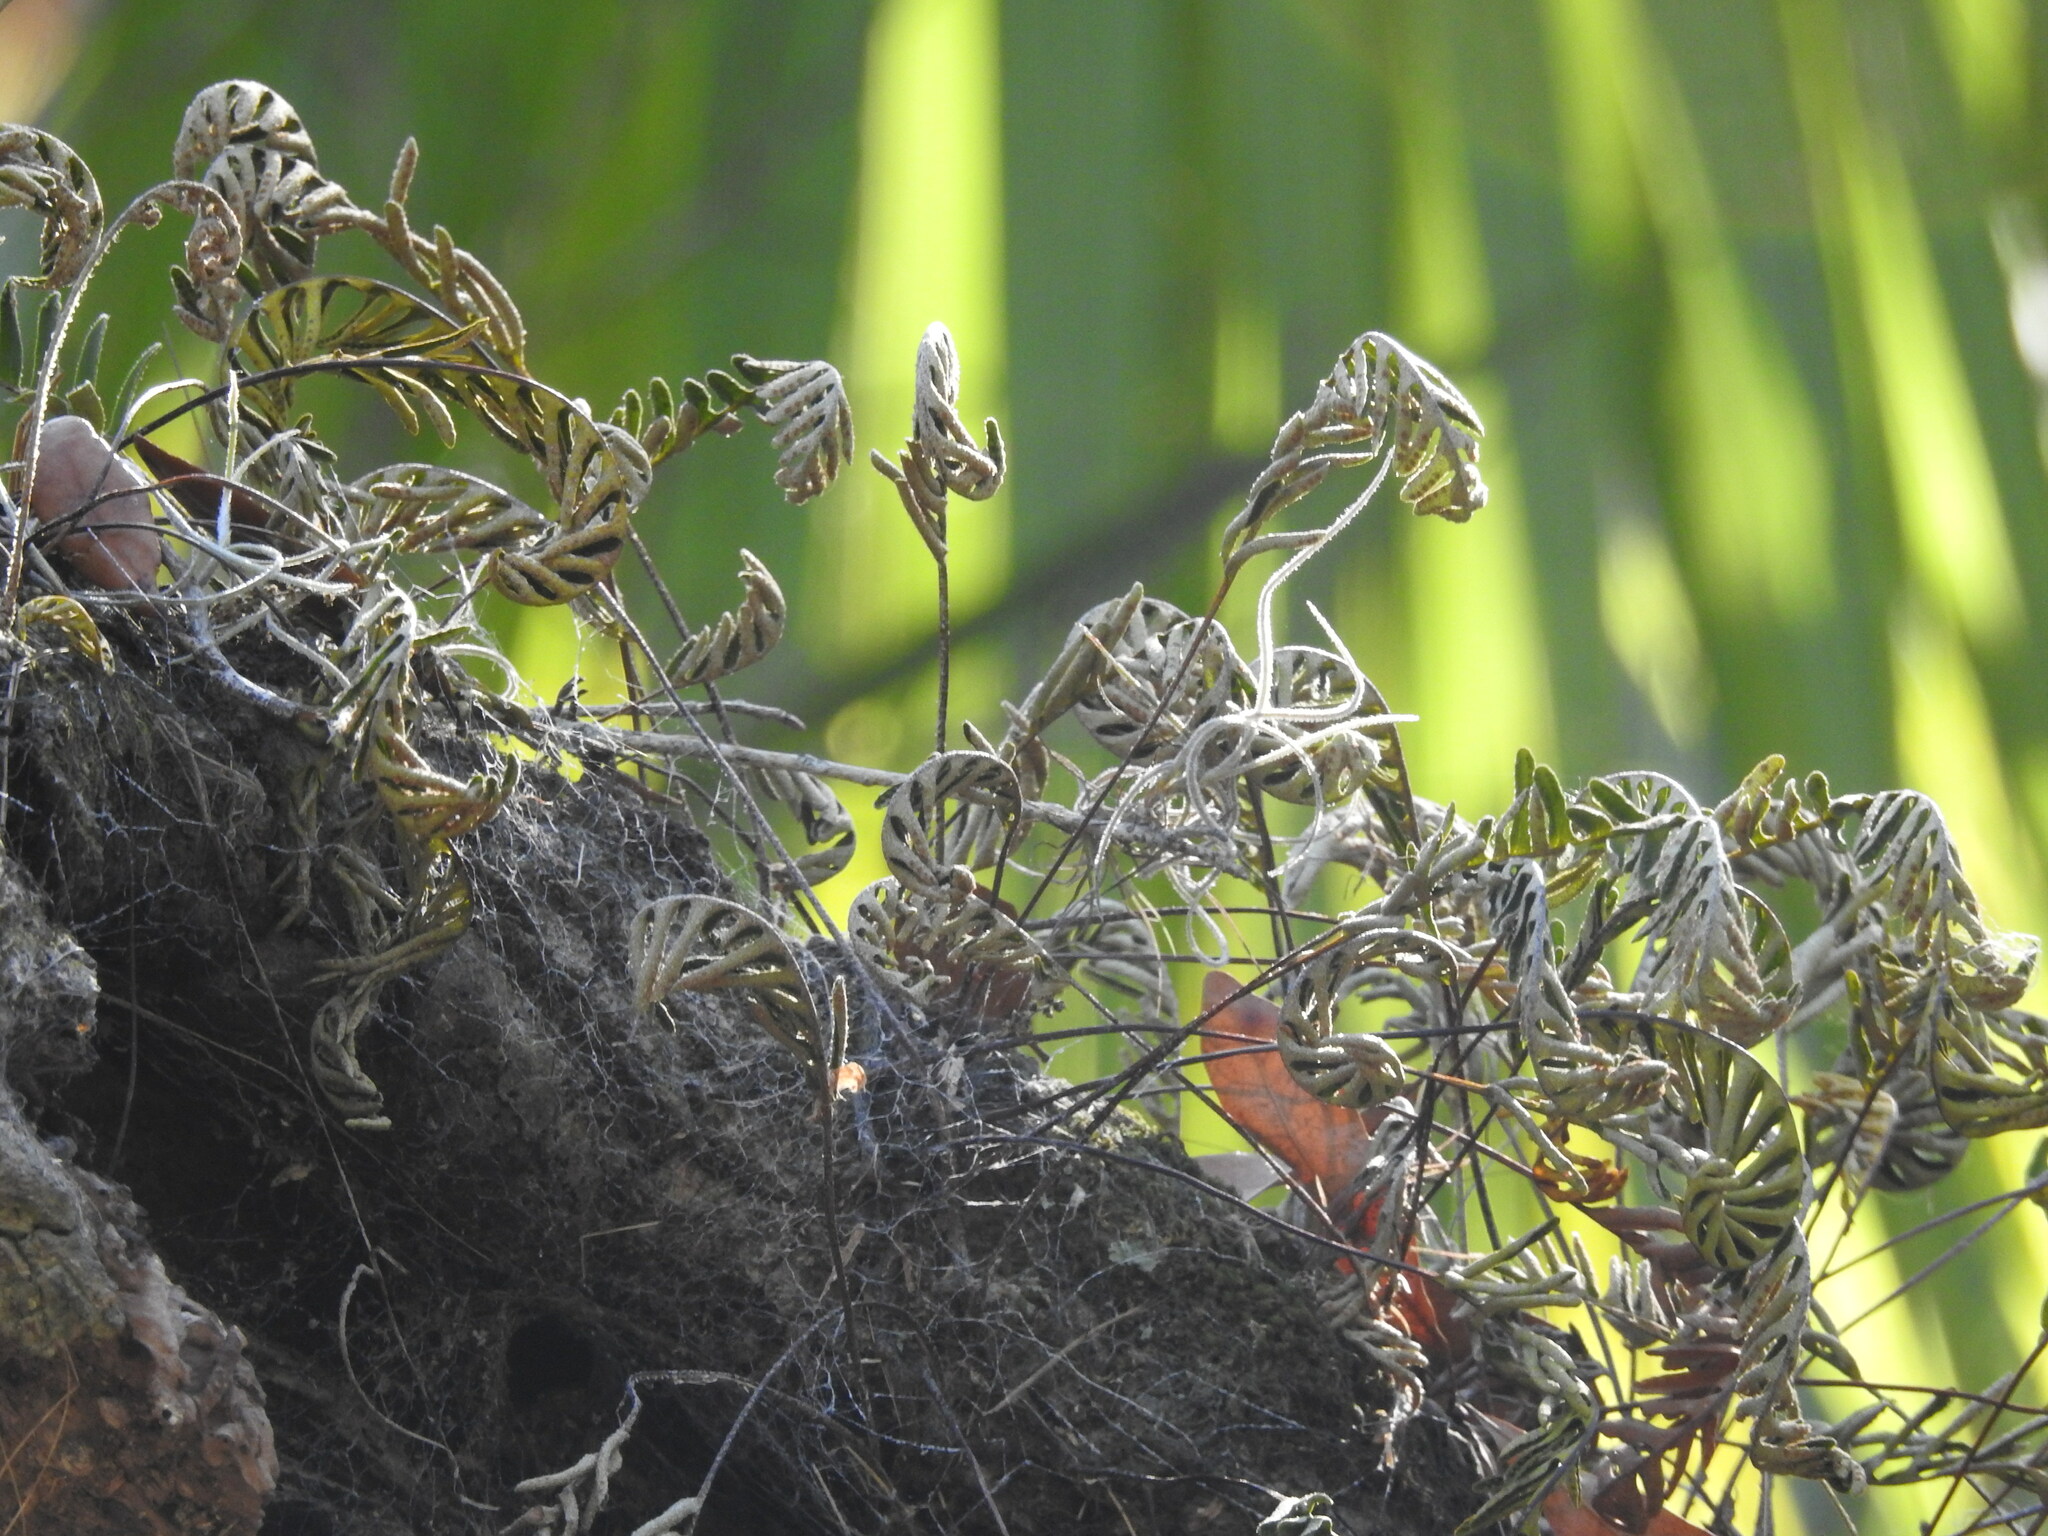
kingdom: Plantae
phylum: Tracheophyta
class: Polypodiopsida
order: Polypodiales
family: Polypodiaceae
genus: Pleopeltis
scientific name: Pleopeltis michauxiana
